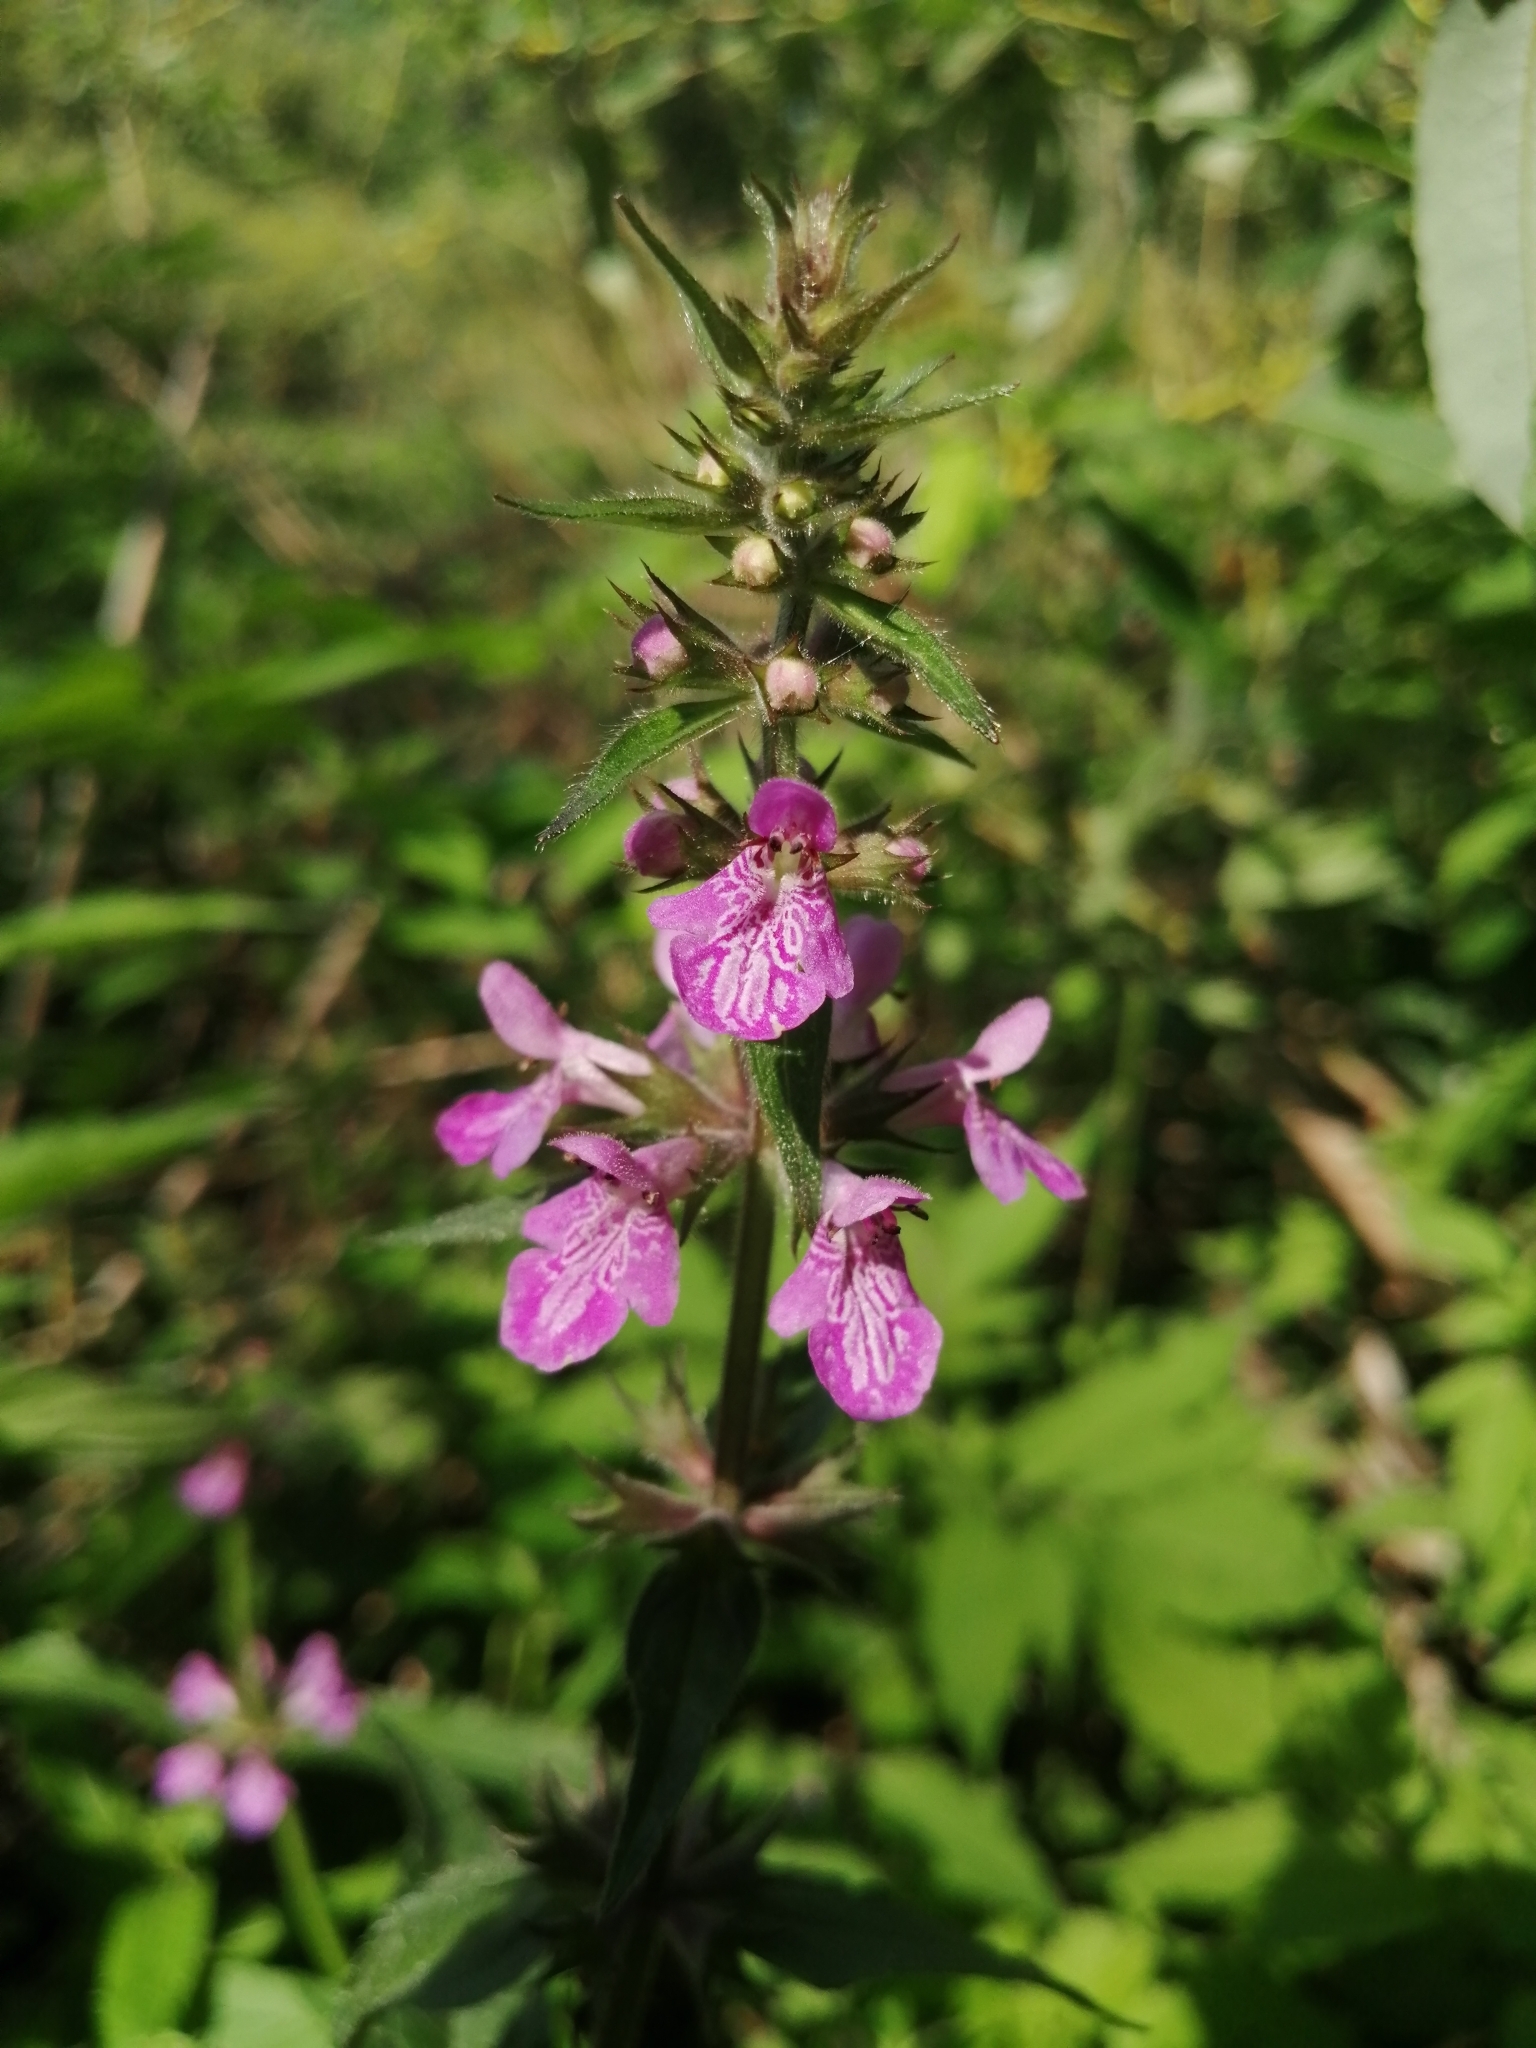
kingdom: Plantae
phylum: Tracheophyta
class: Magnoliopsida
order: Lamiales
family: Lamiaceae
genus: Stachys
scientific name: Stachys palustris
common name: Marsh woundwort
